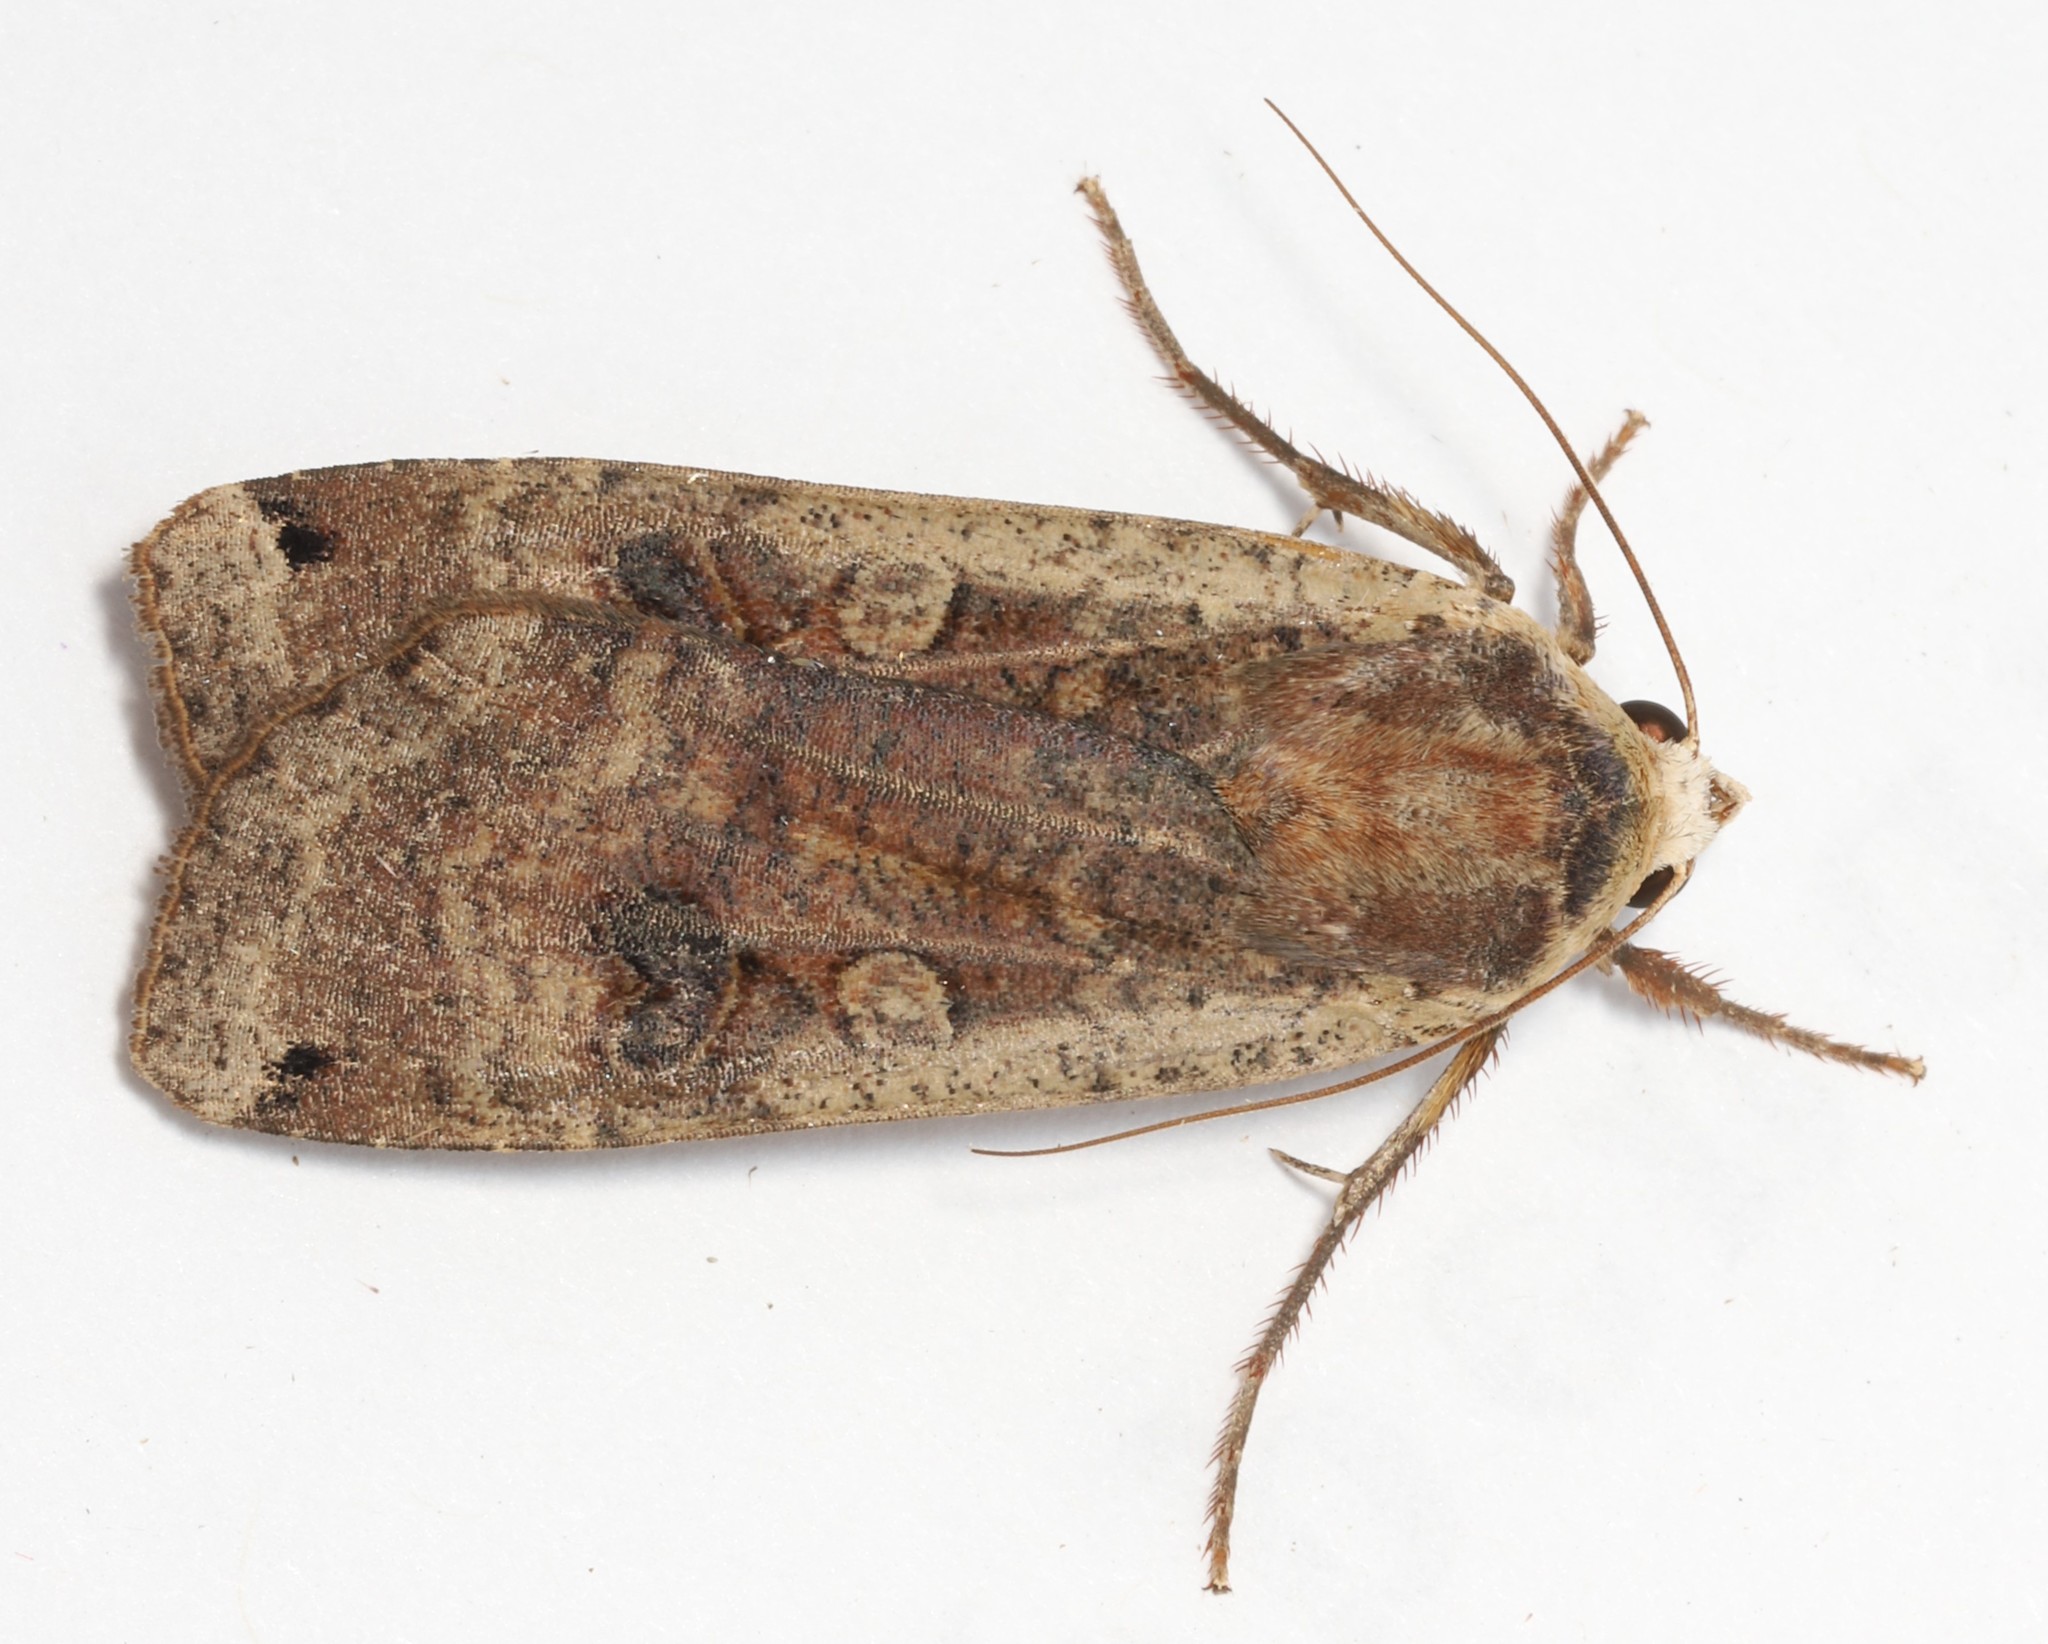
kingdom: Animalia
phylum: Arthropoda
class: Insecta
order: Lepidoptera
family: Noctuidae
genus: Noctua
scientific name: Noctua pronuba
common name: Large yellow underwing
